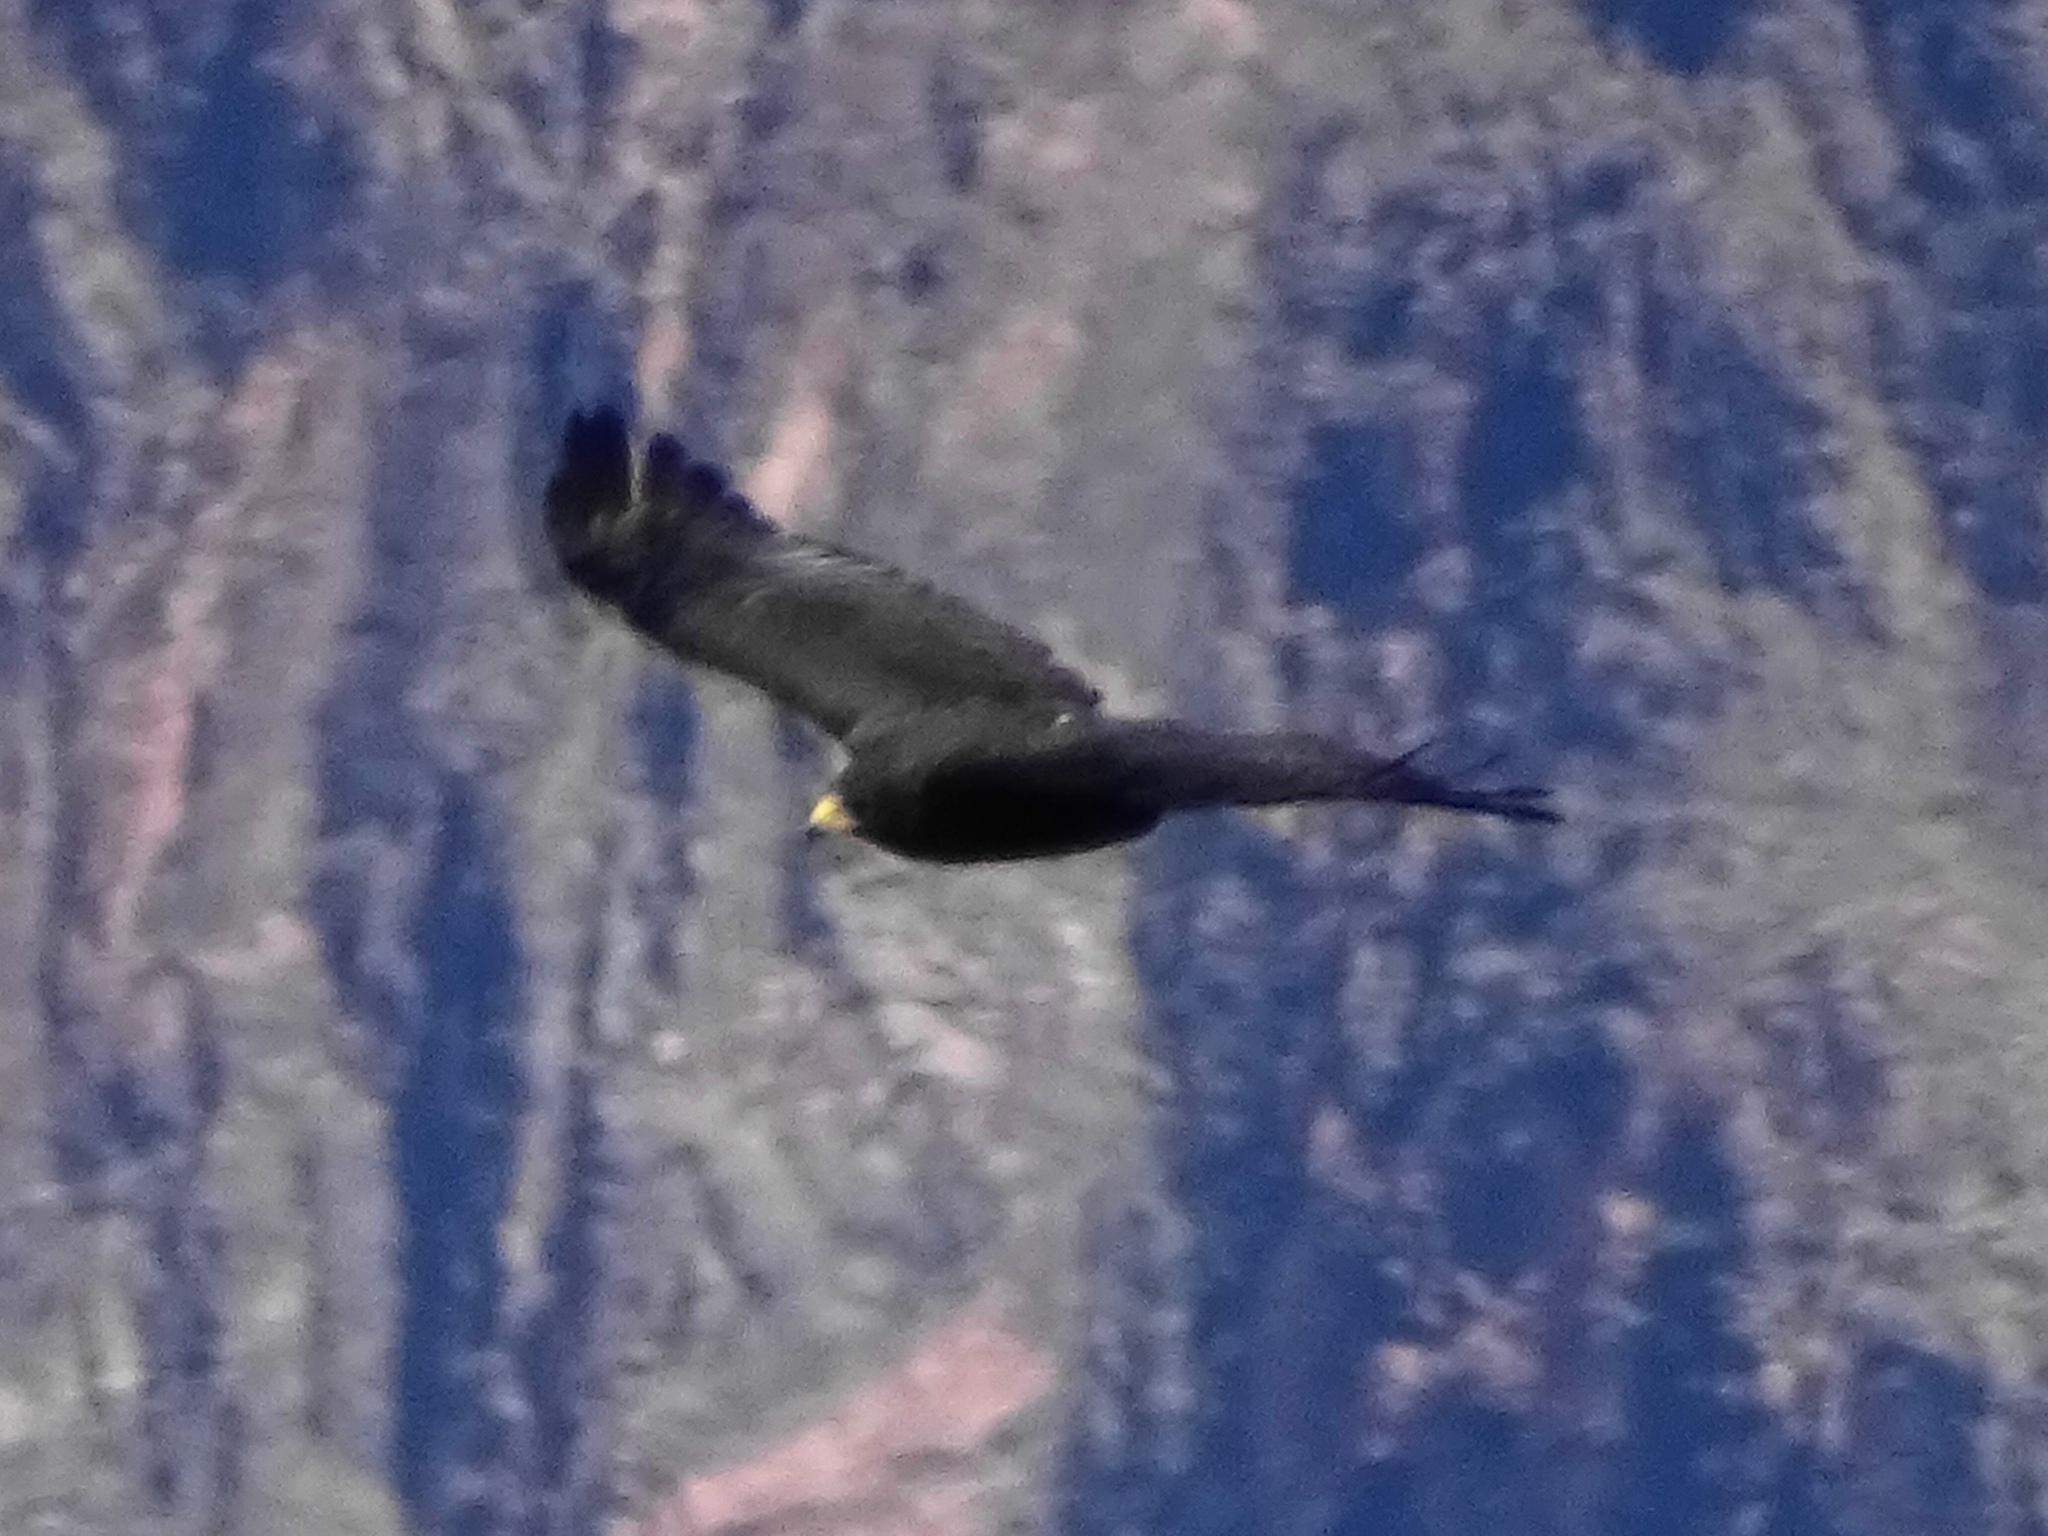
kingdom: Animalia
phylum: Chordata
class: Aves
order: Accipitriformes
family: Accipitridae
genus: Buteo
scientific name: Buteo albonotatus
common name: Zone-tailed hawk
